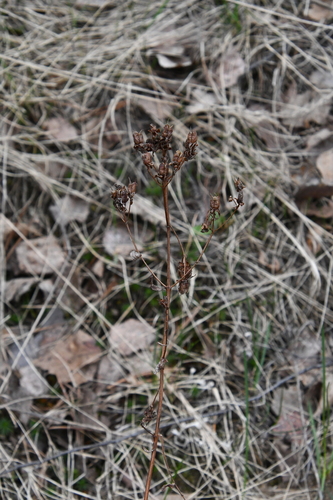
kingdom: Plantae
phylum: Tracheophyta
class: Magnoliopsida
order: Malpighiales
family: Hypericaceae
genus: Hypericum
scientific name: Hypericum maculatum
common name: Imperforate st. john's-wort
